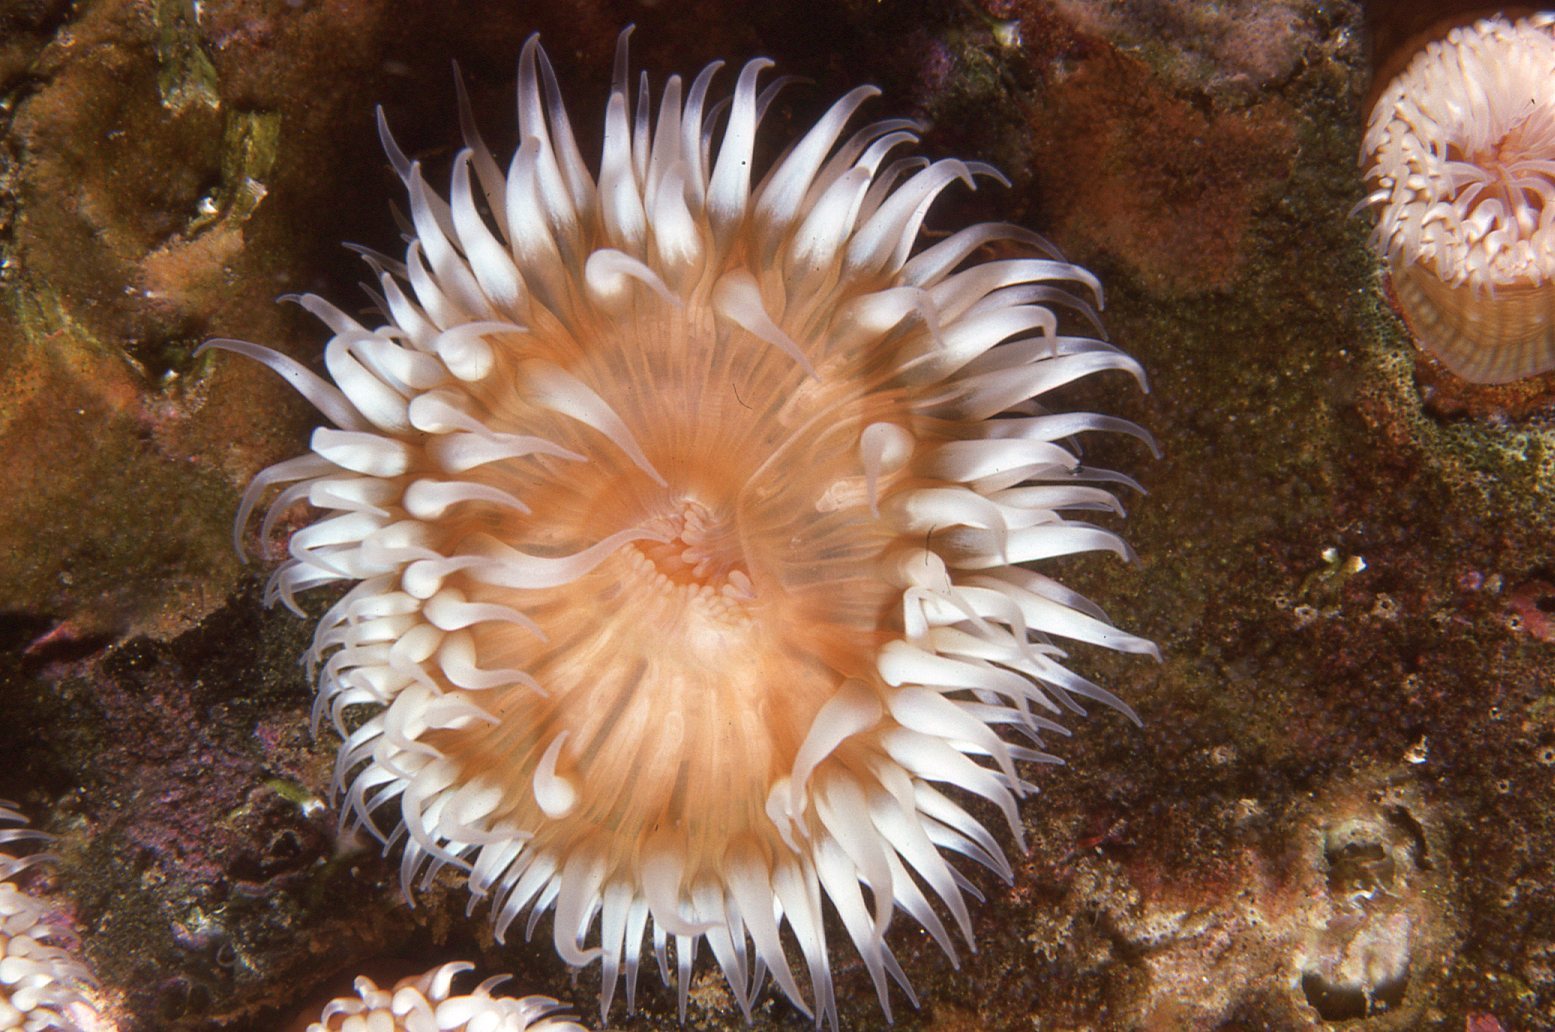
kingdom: Animalia
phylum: Cnidaria
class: Anthozoa
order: Actiniaria
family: Sagartiidae
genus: Anthothoe
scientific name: Anthothoe albocincta
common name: Orange striped anemone
